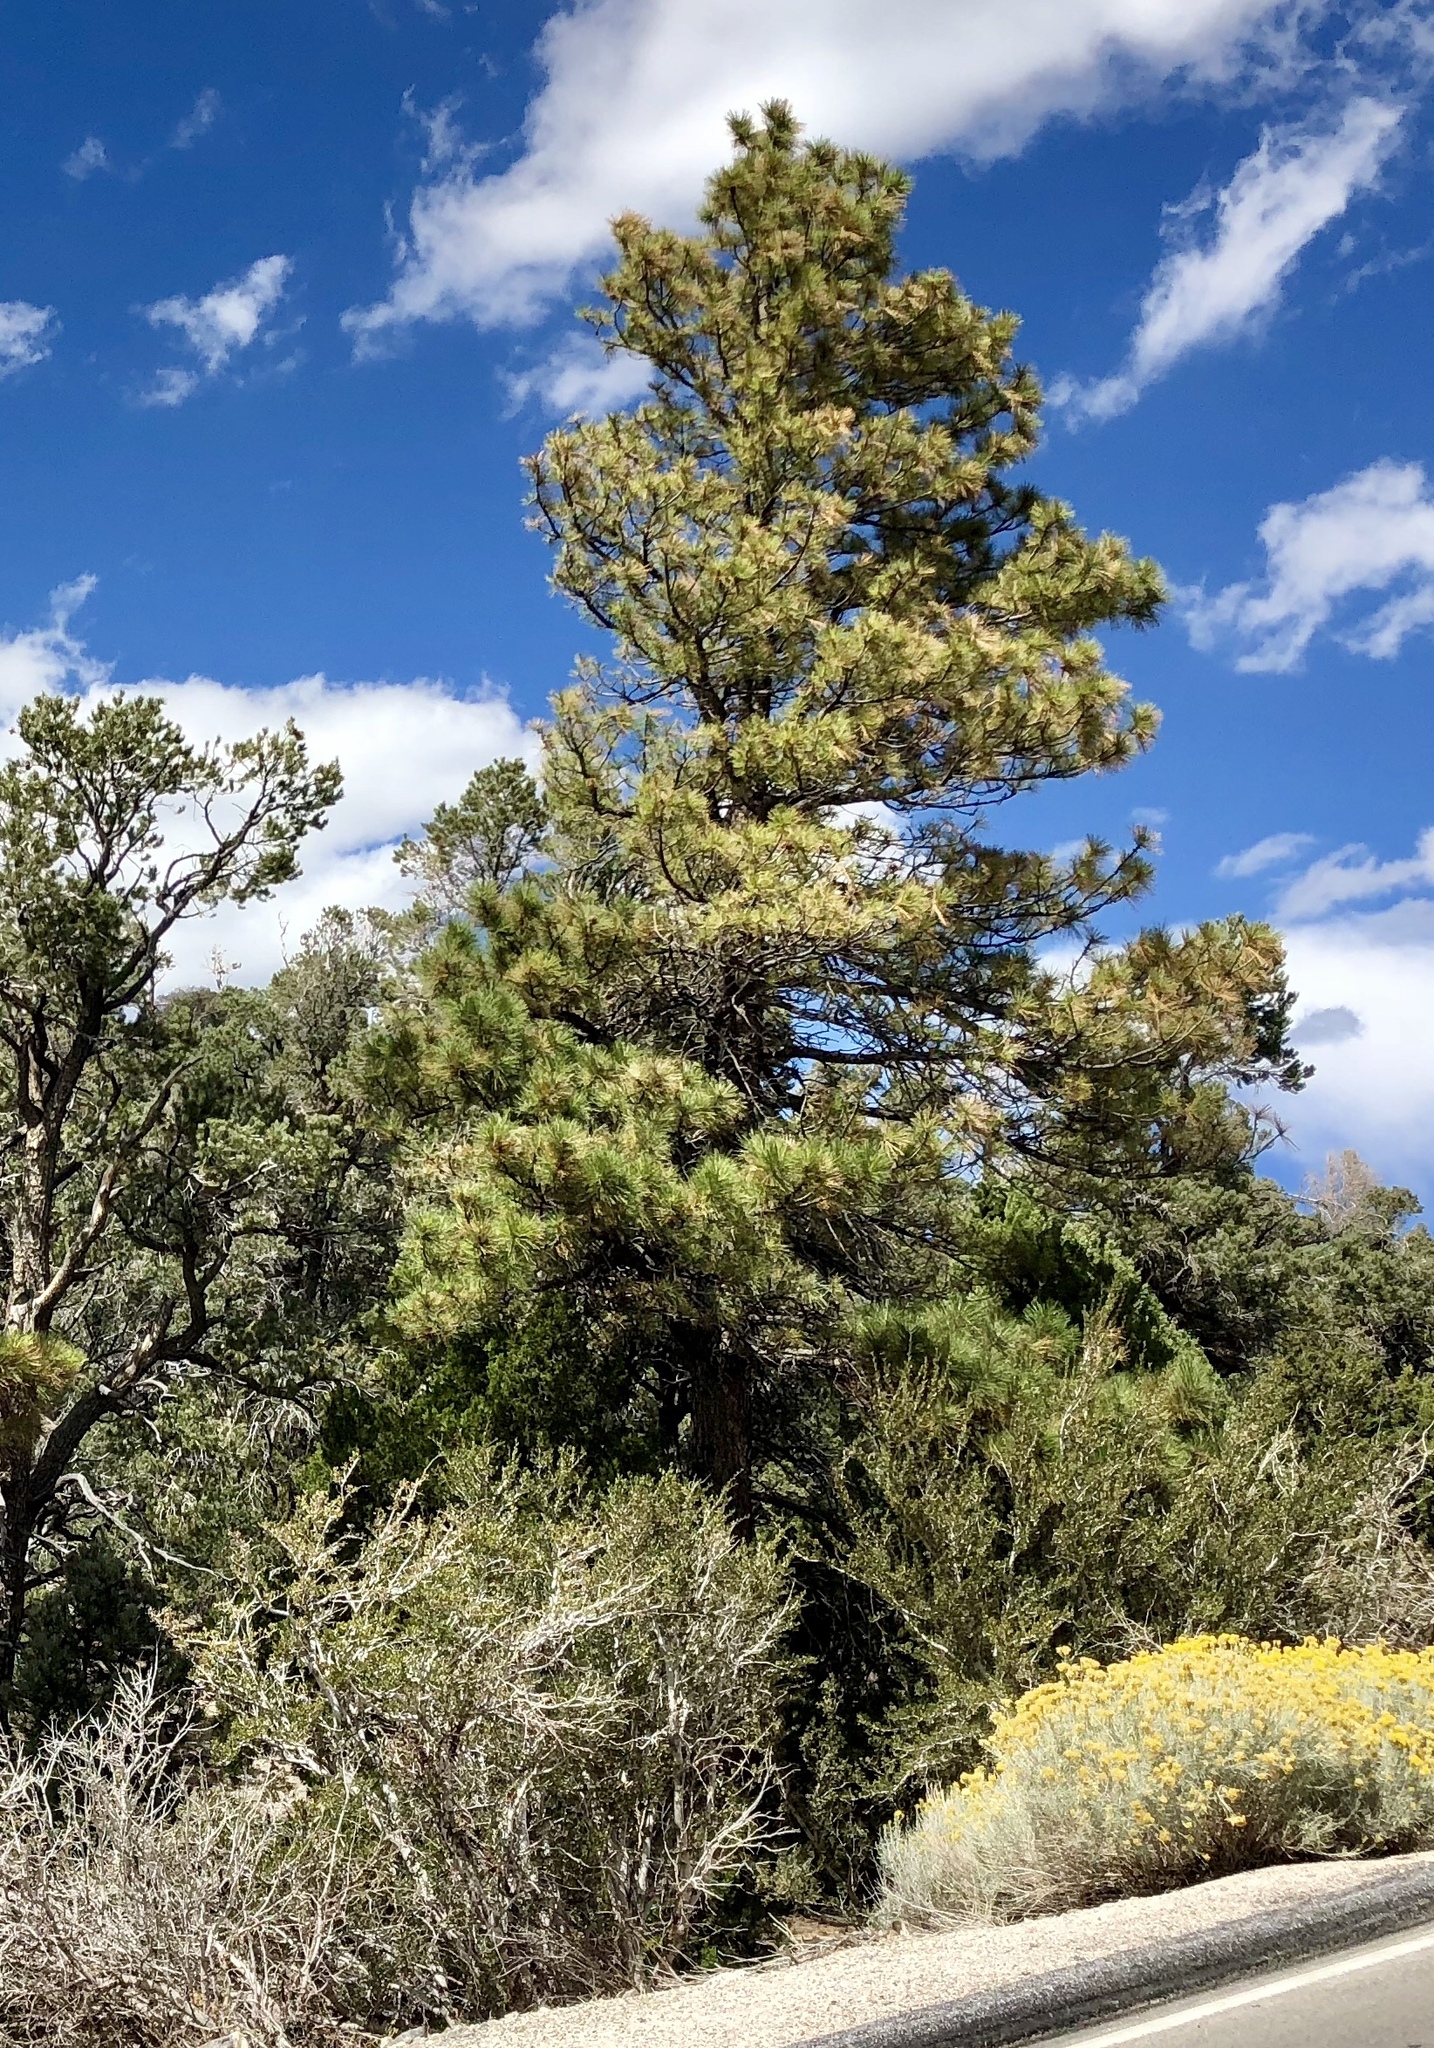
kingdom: Plantae
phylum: Tracheophyta
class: Pinopsida
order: Pinales
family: Pinaceae
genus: Pinus
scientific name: Pinus ponderosa
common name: Western yellow-pine
